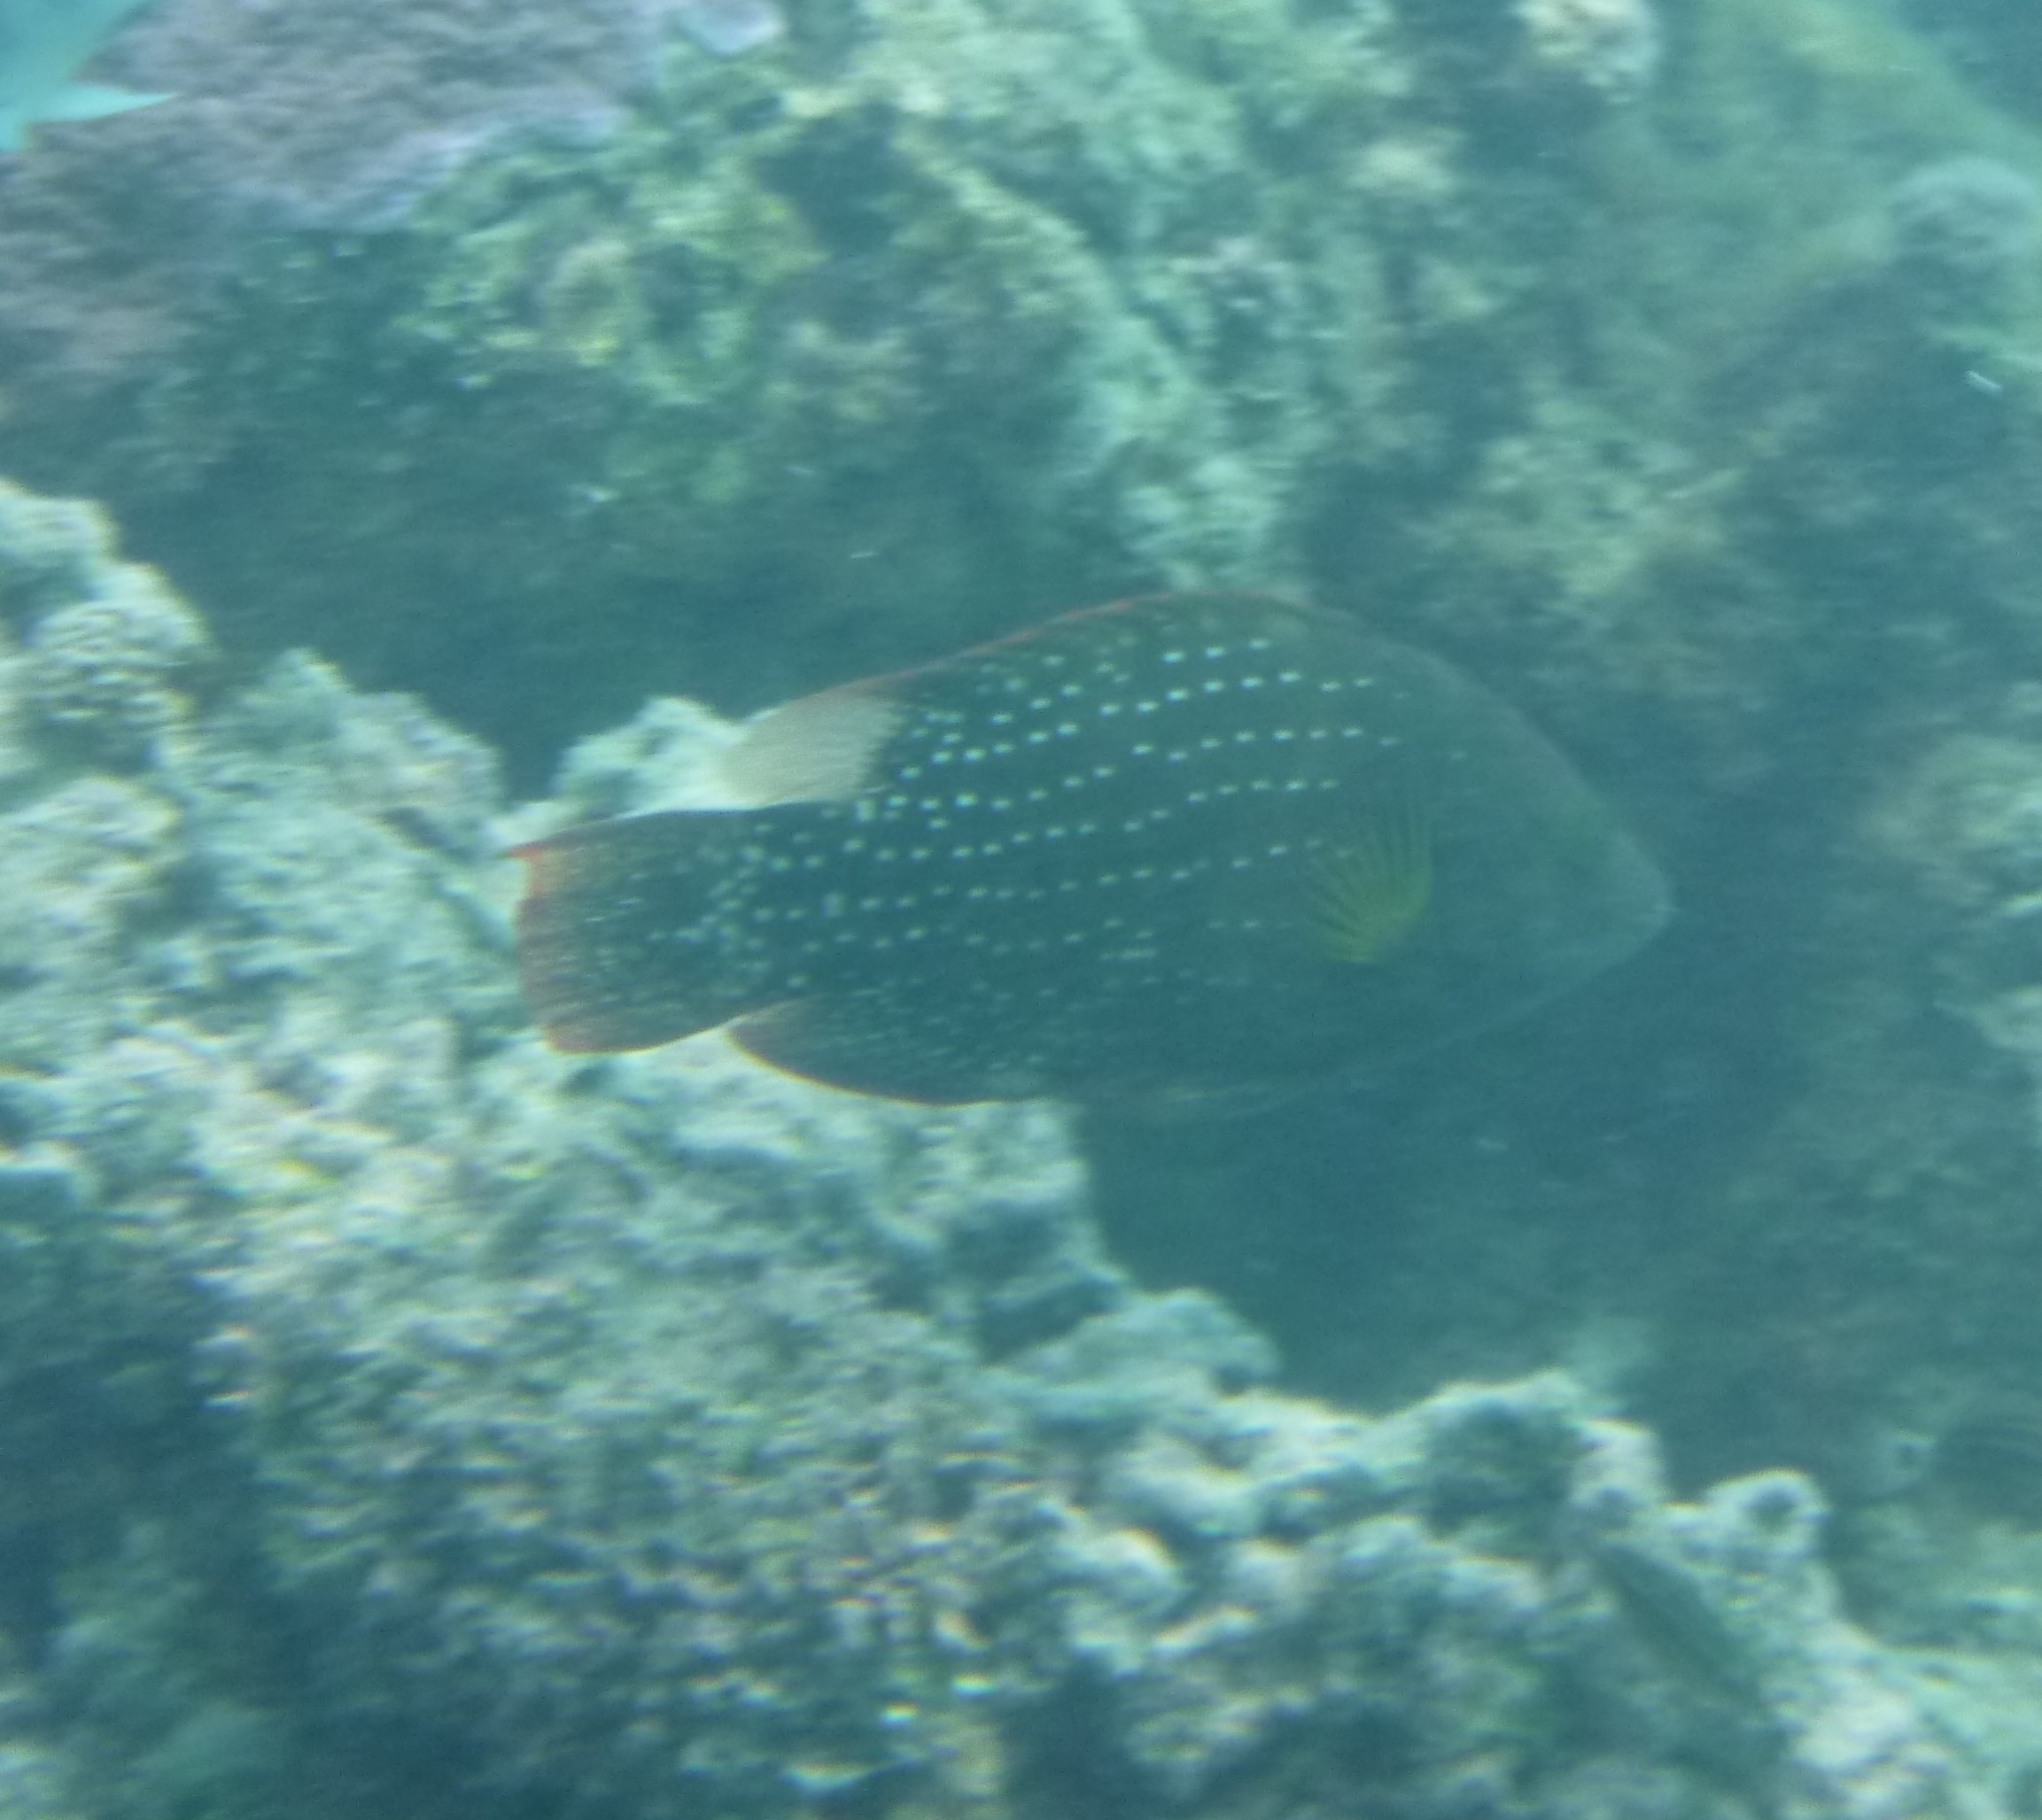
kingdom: Animalia
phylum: Chordata
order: Perciformes
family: Labridae
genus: Cheilinus
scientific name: Cheilinus chlorourus
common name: Floral wrasse
